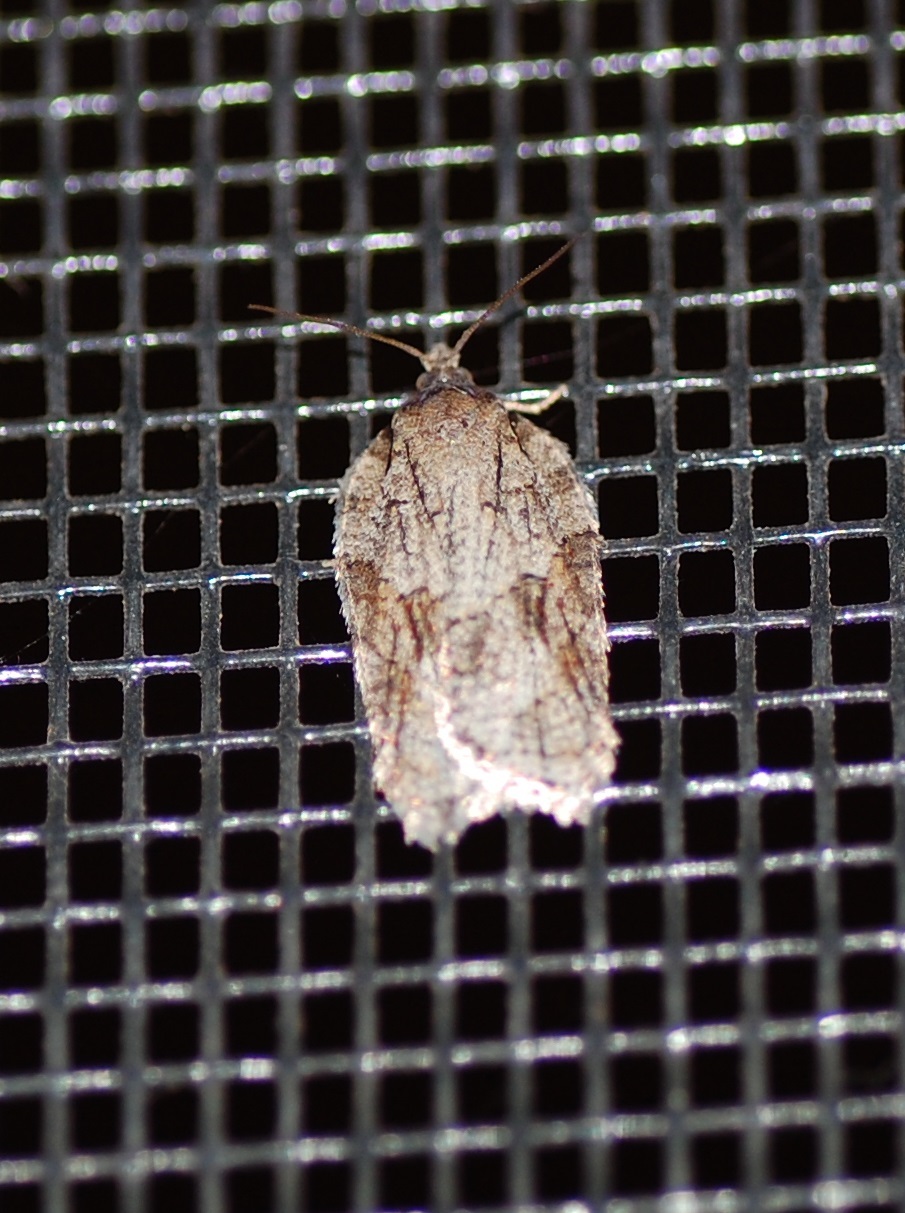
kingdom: Animalia
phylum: Arthropoda
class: Insecta
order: Lepidoptera
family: Tortricidae
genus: Acleris
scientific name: Acleris ptychogrammos
